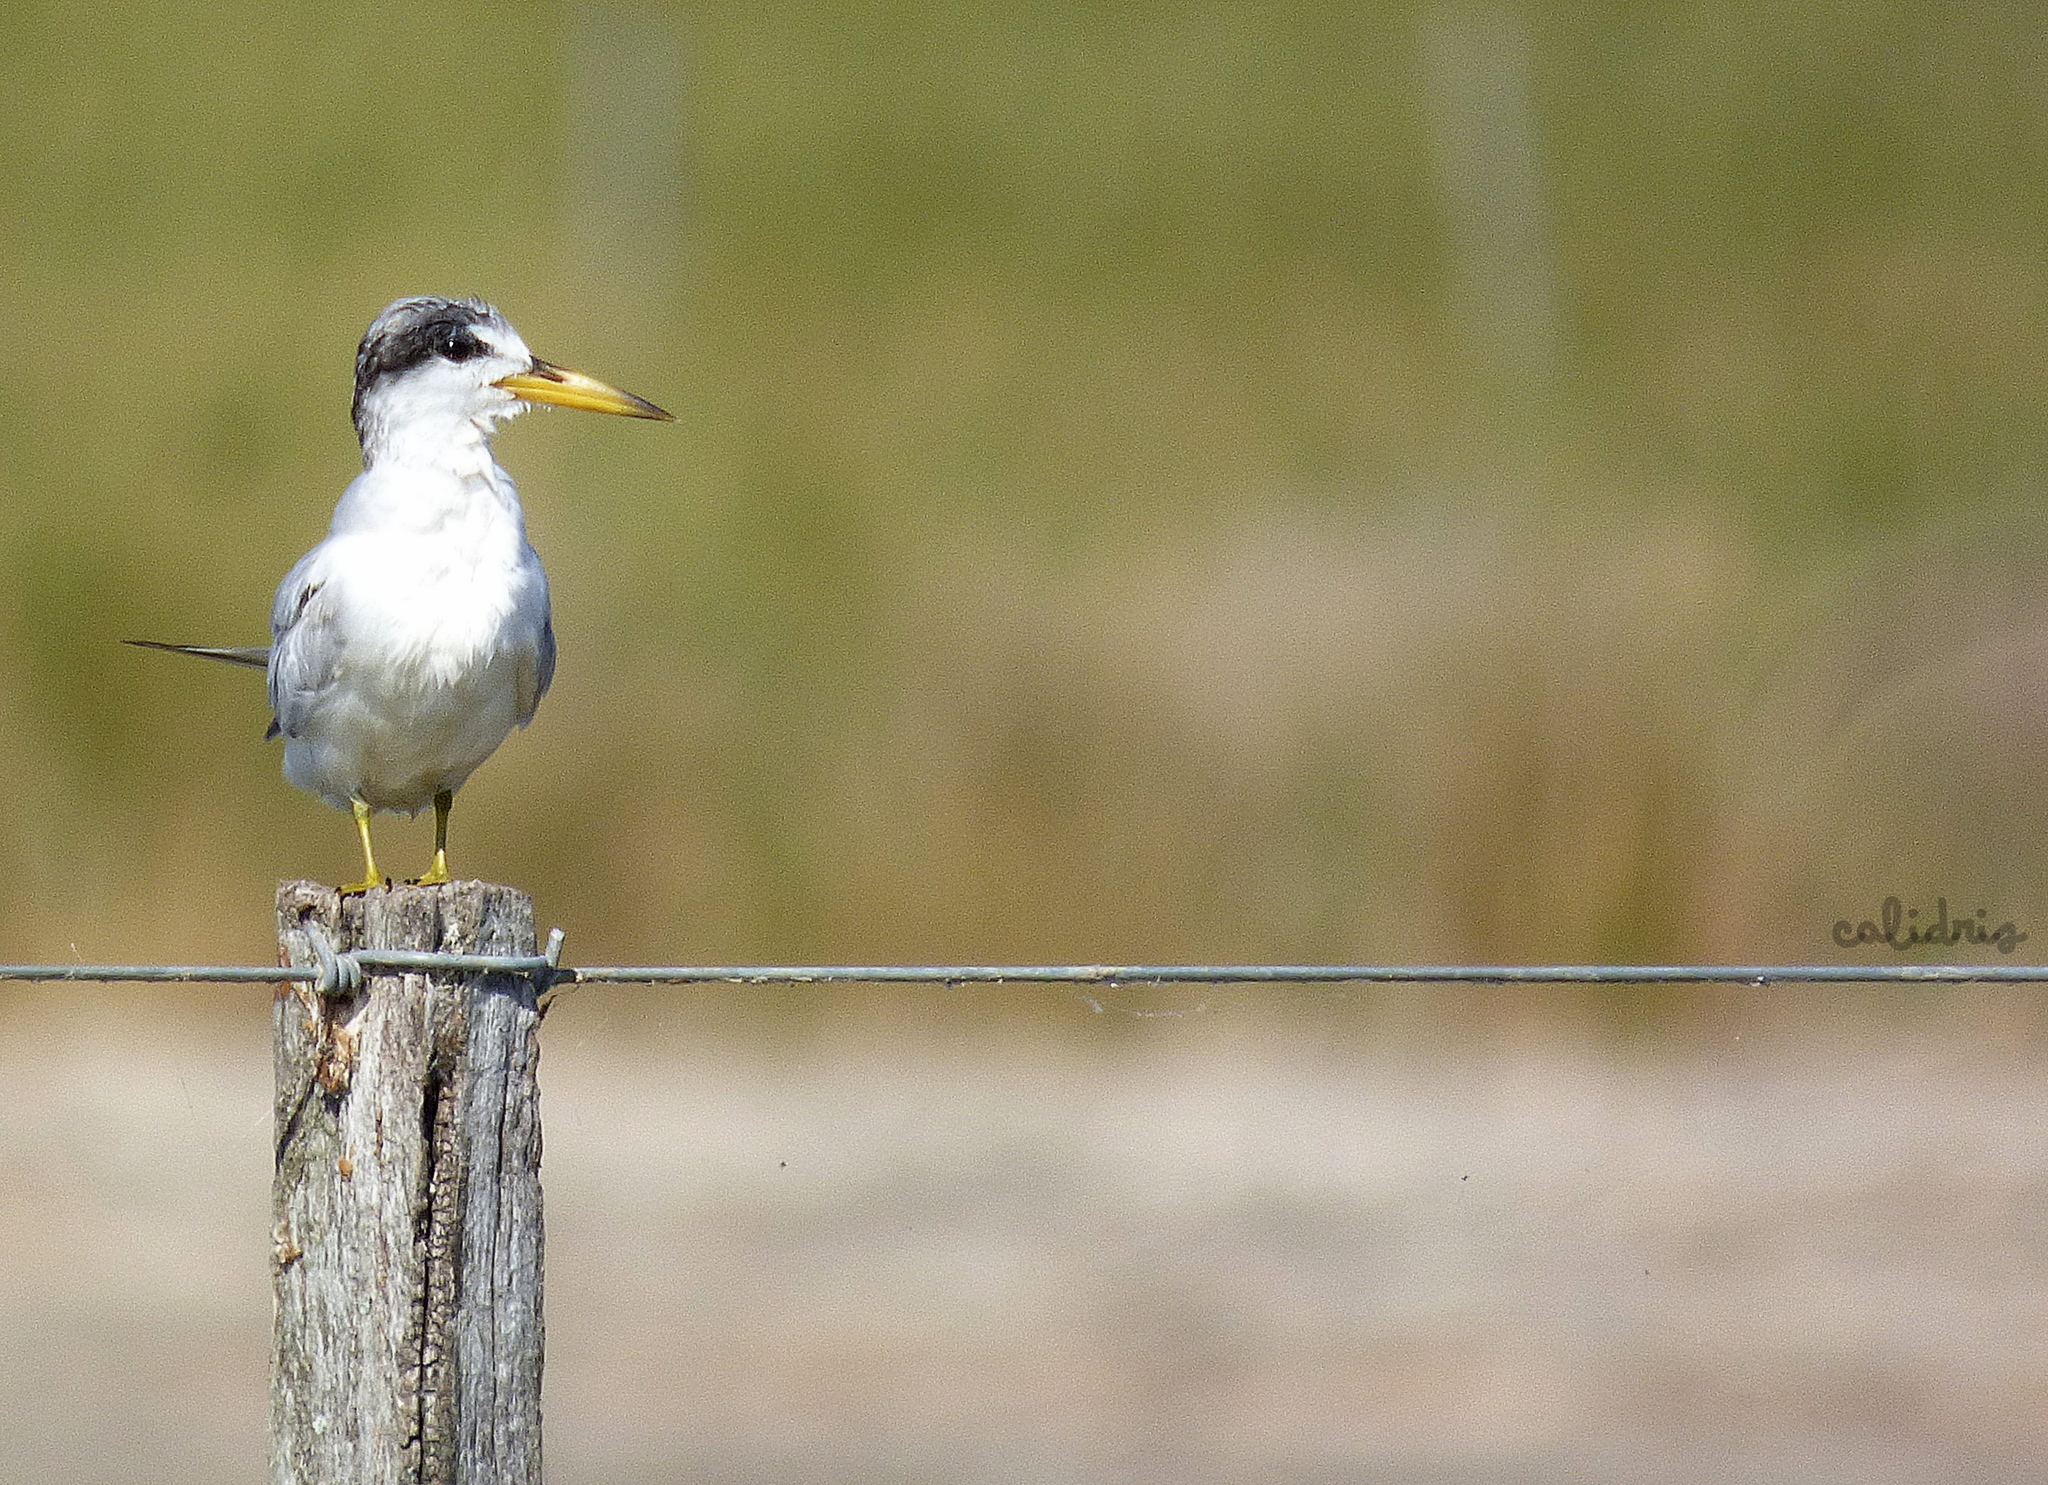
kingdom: Animalia
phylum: Chordata
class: Aves
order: Charadriiformes
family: Laridae
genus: Sternula
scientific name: Sternula superciliaris
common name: Yellow-billed tern
